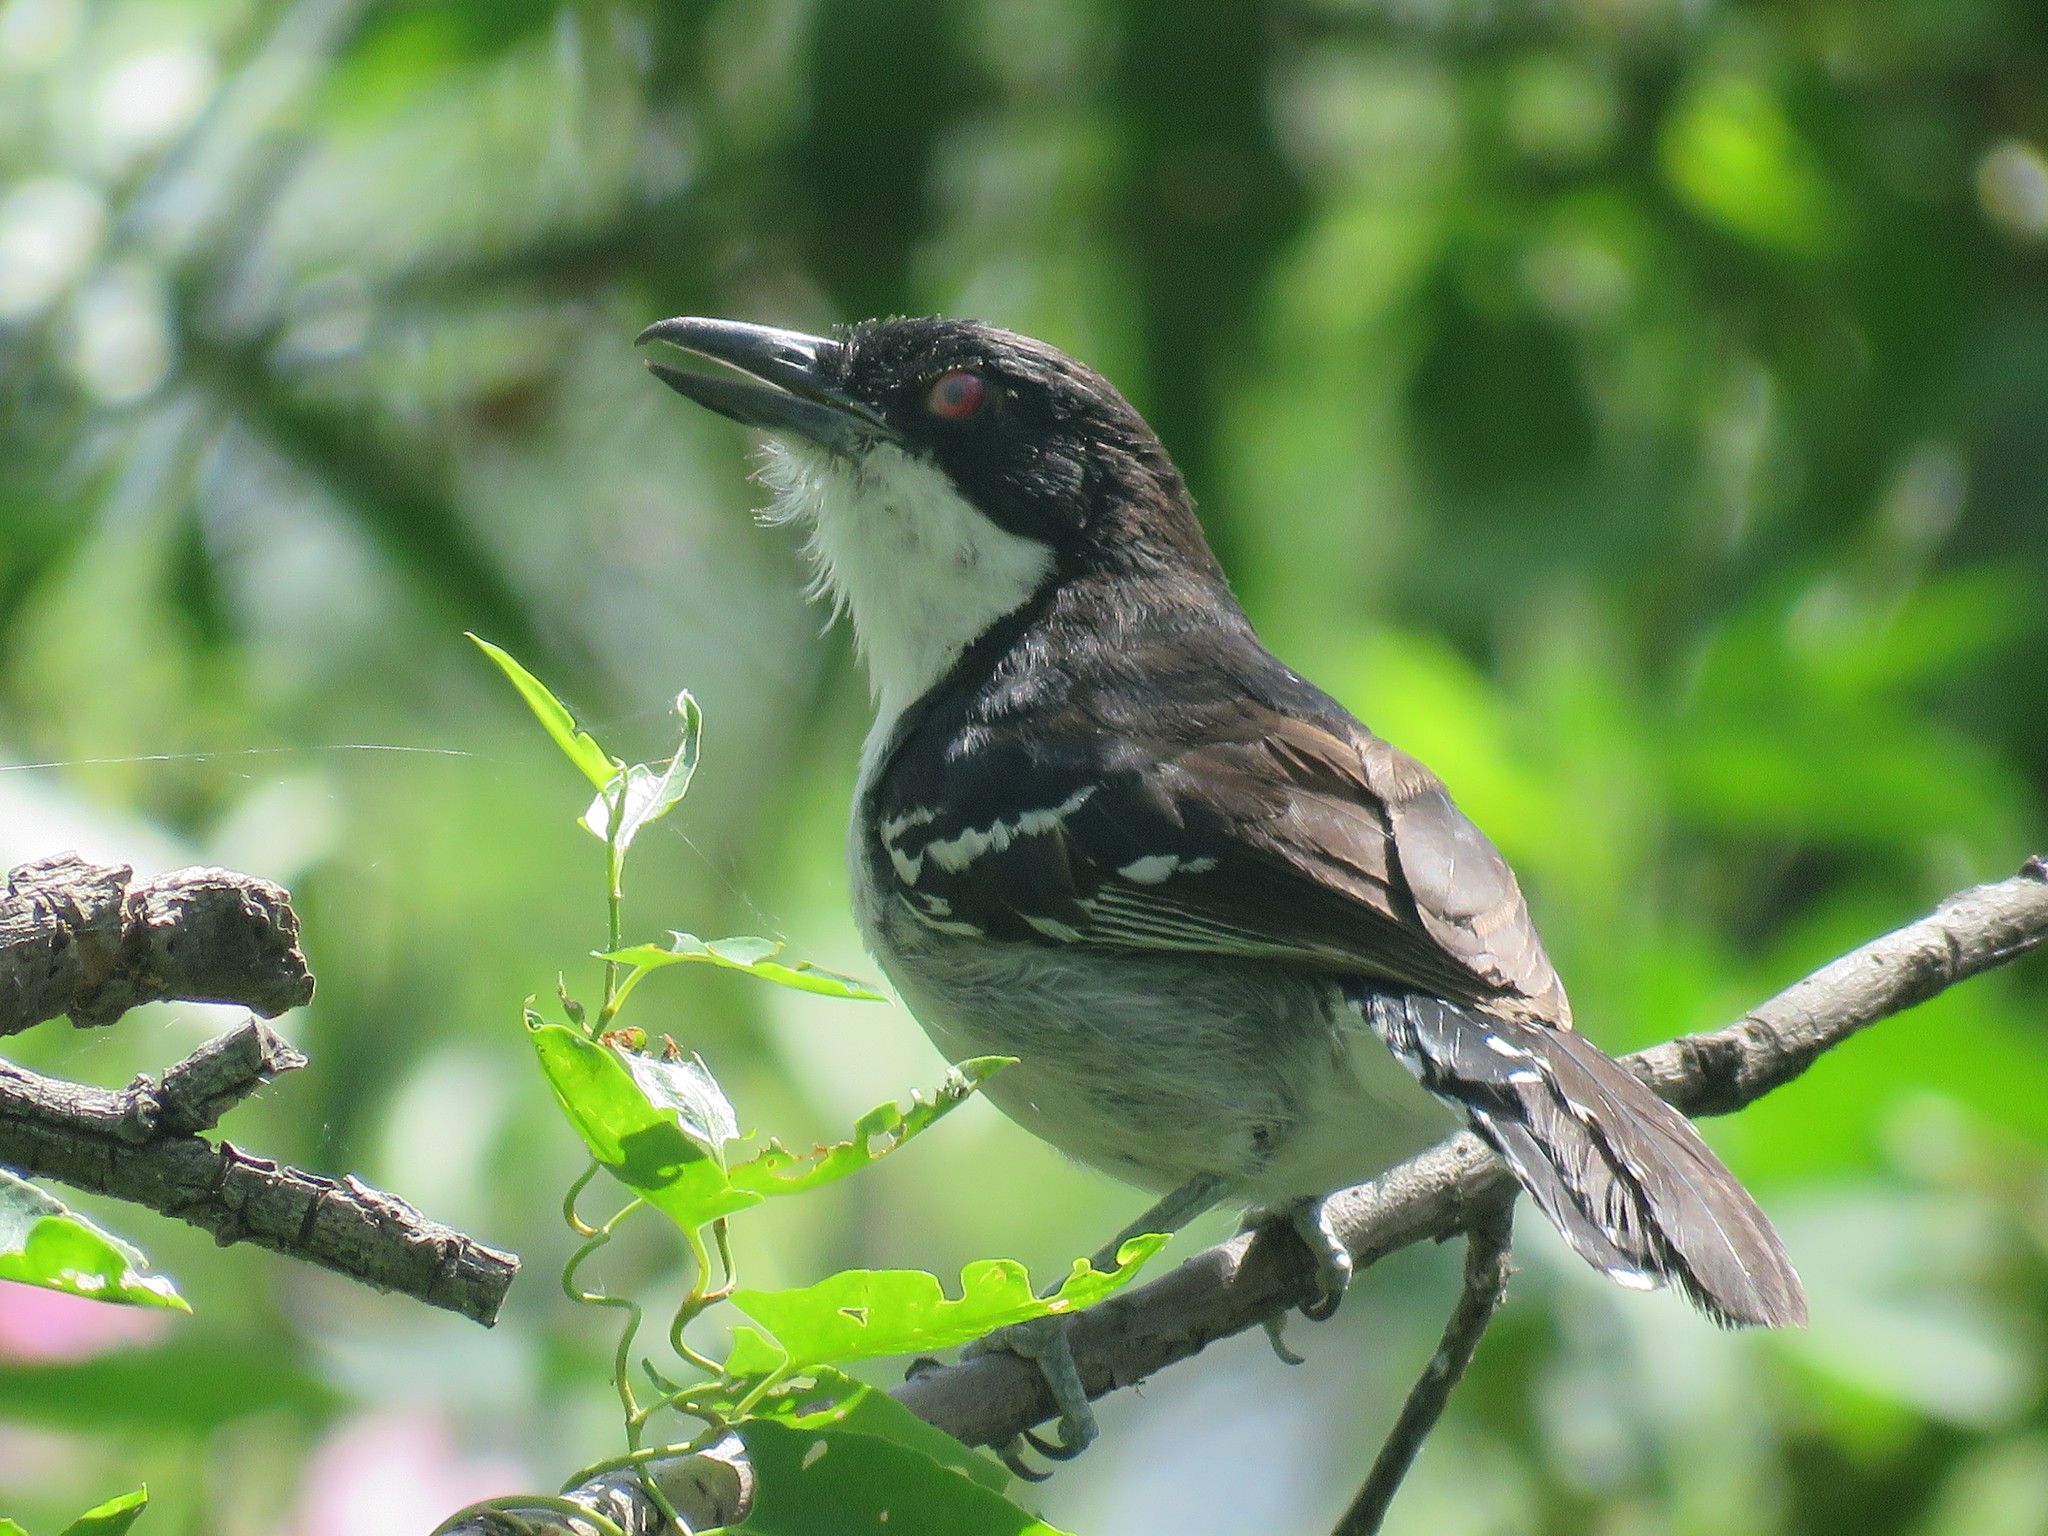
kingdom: Animalia
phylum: Chordata
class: Aves
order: Passeriformes
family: Thamnophilidae
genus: Taraba
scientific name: Taraba major
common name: Great antshrike
